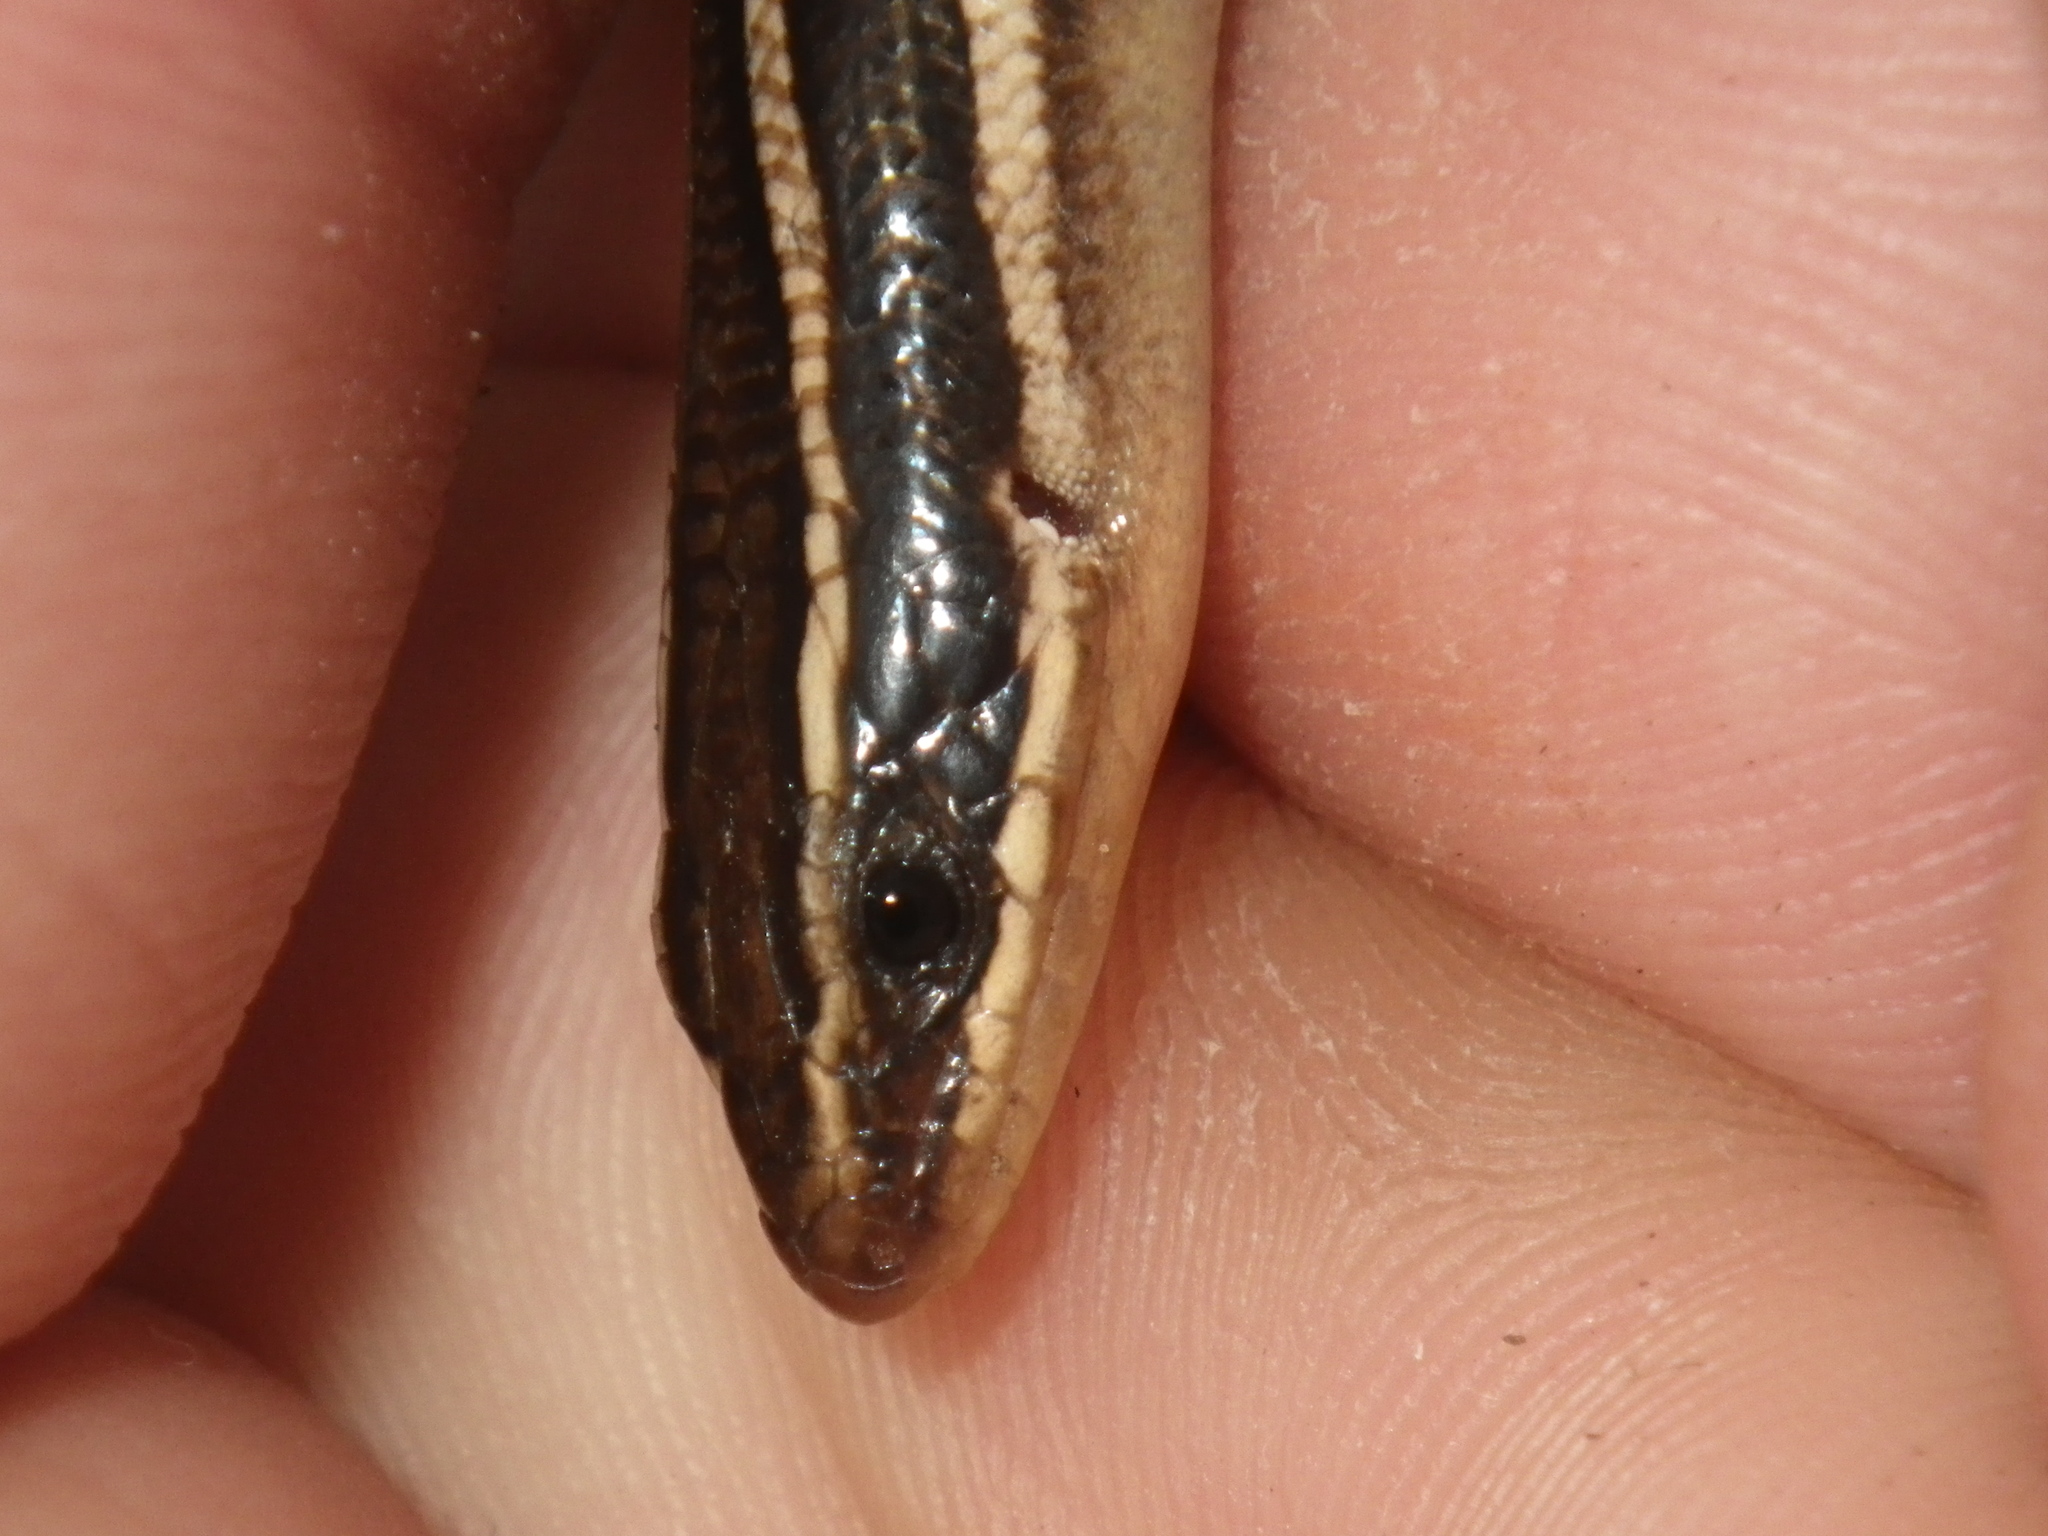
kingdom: Animalia
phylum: Chordata
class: Squamata
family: Scincidae
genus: Plestiodon
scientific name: Plestiodon gilberti
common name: Gilbert's skink
